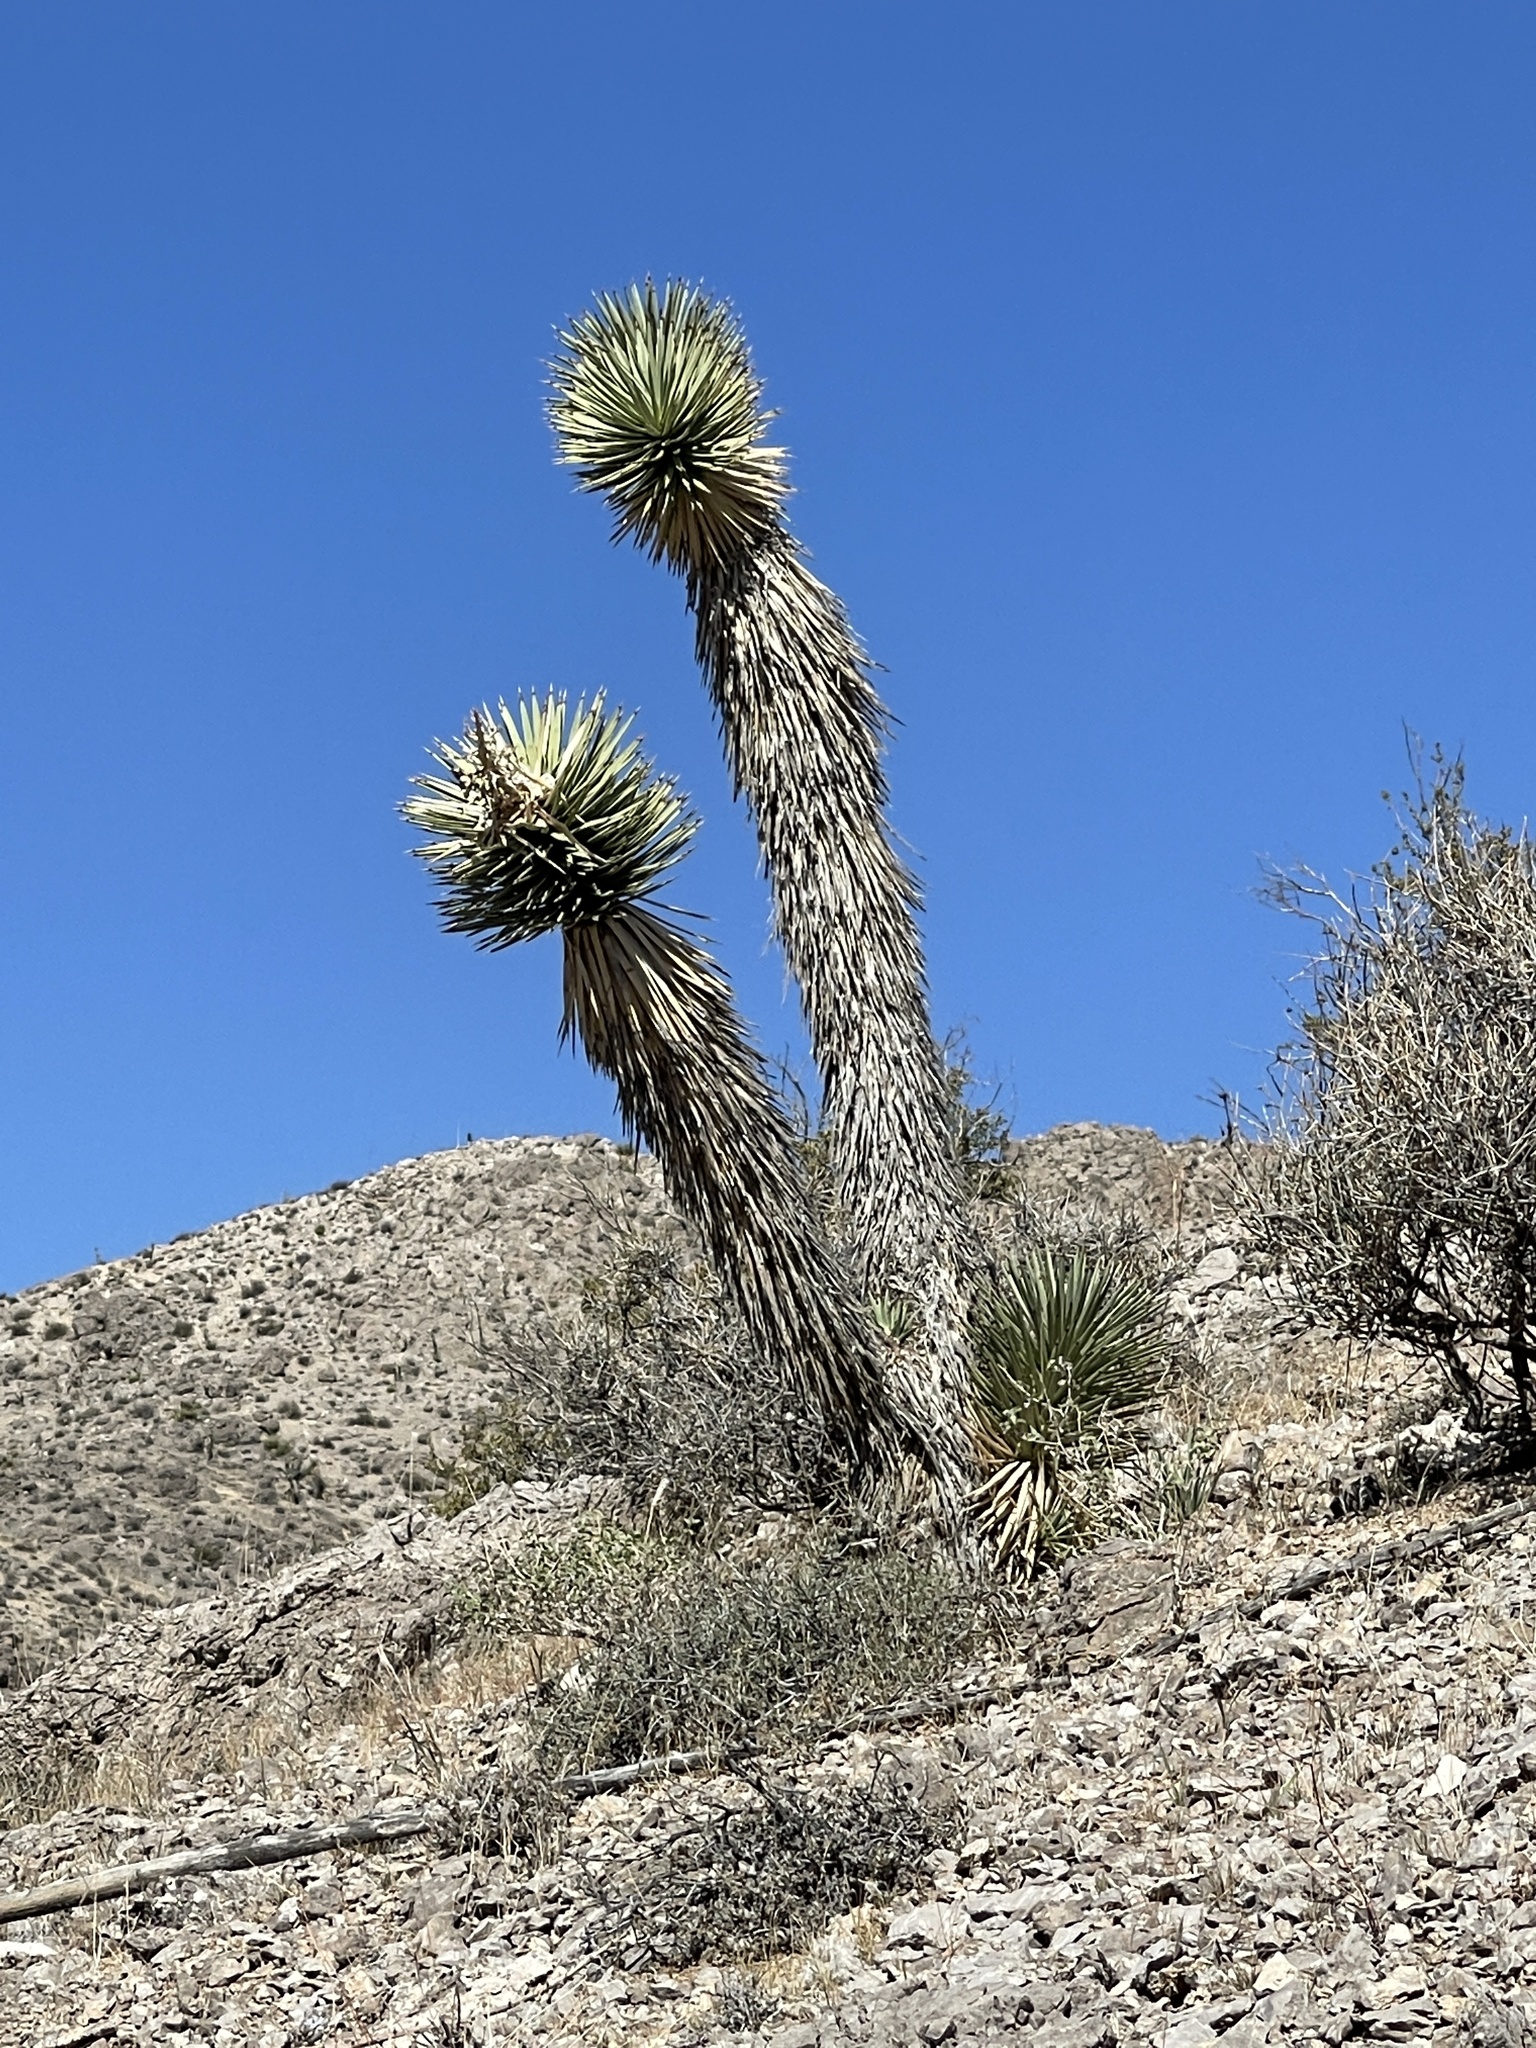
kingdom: Plantae
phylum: Tracheophyta
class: Liliopsida
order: Asparagales
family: Asparagaceae
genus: Yucca
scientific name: Yucca brevifolia
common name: Joshua tree
